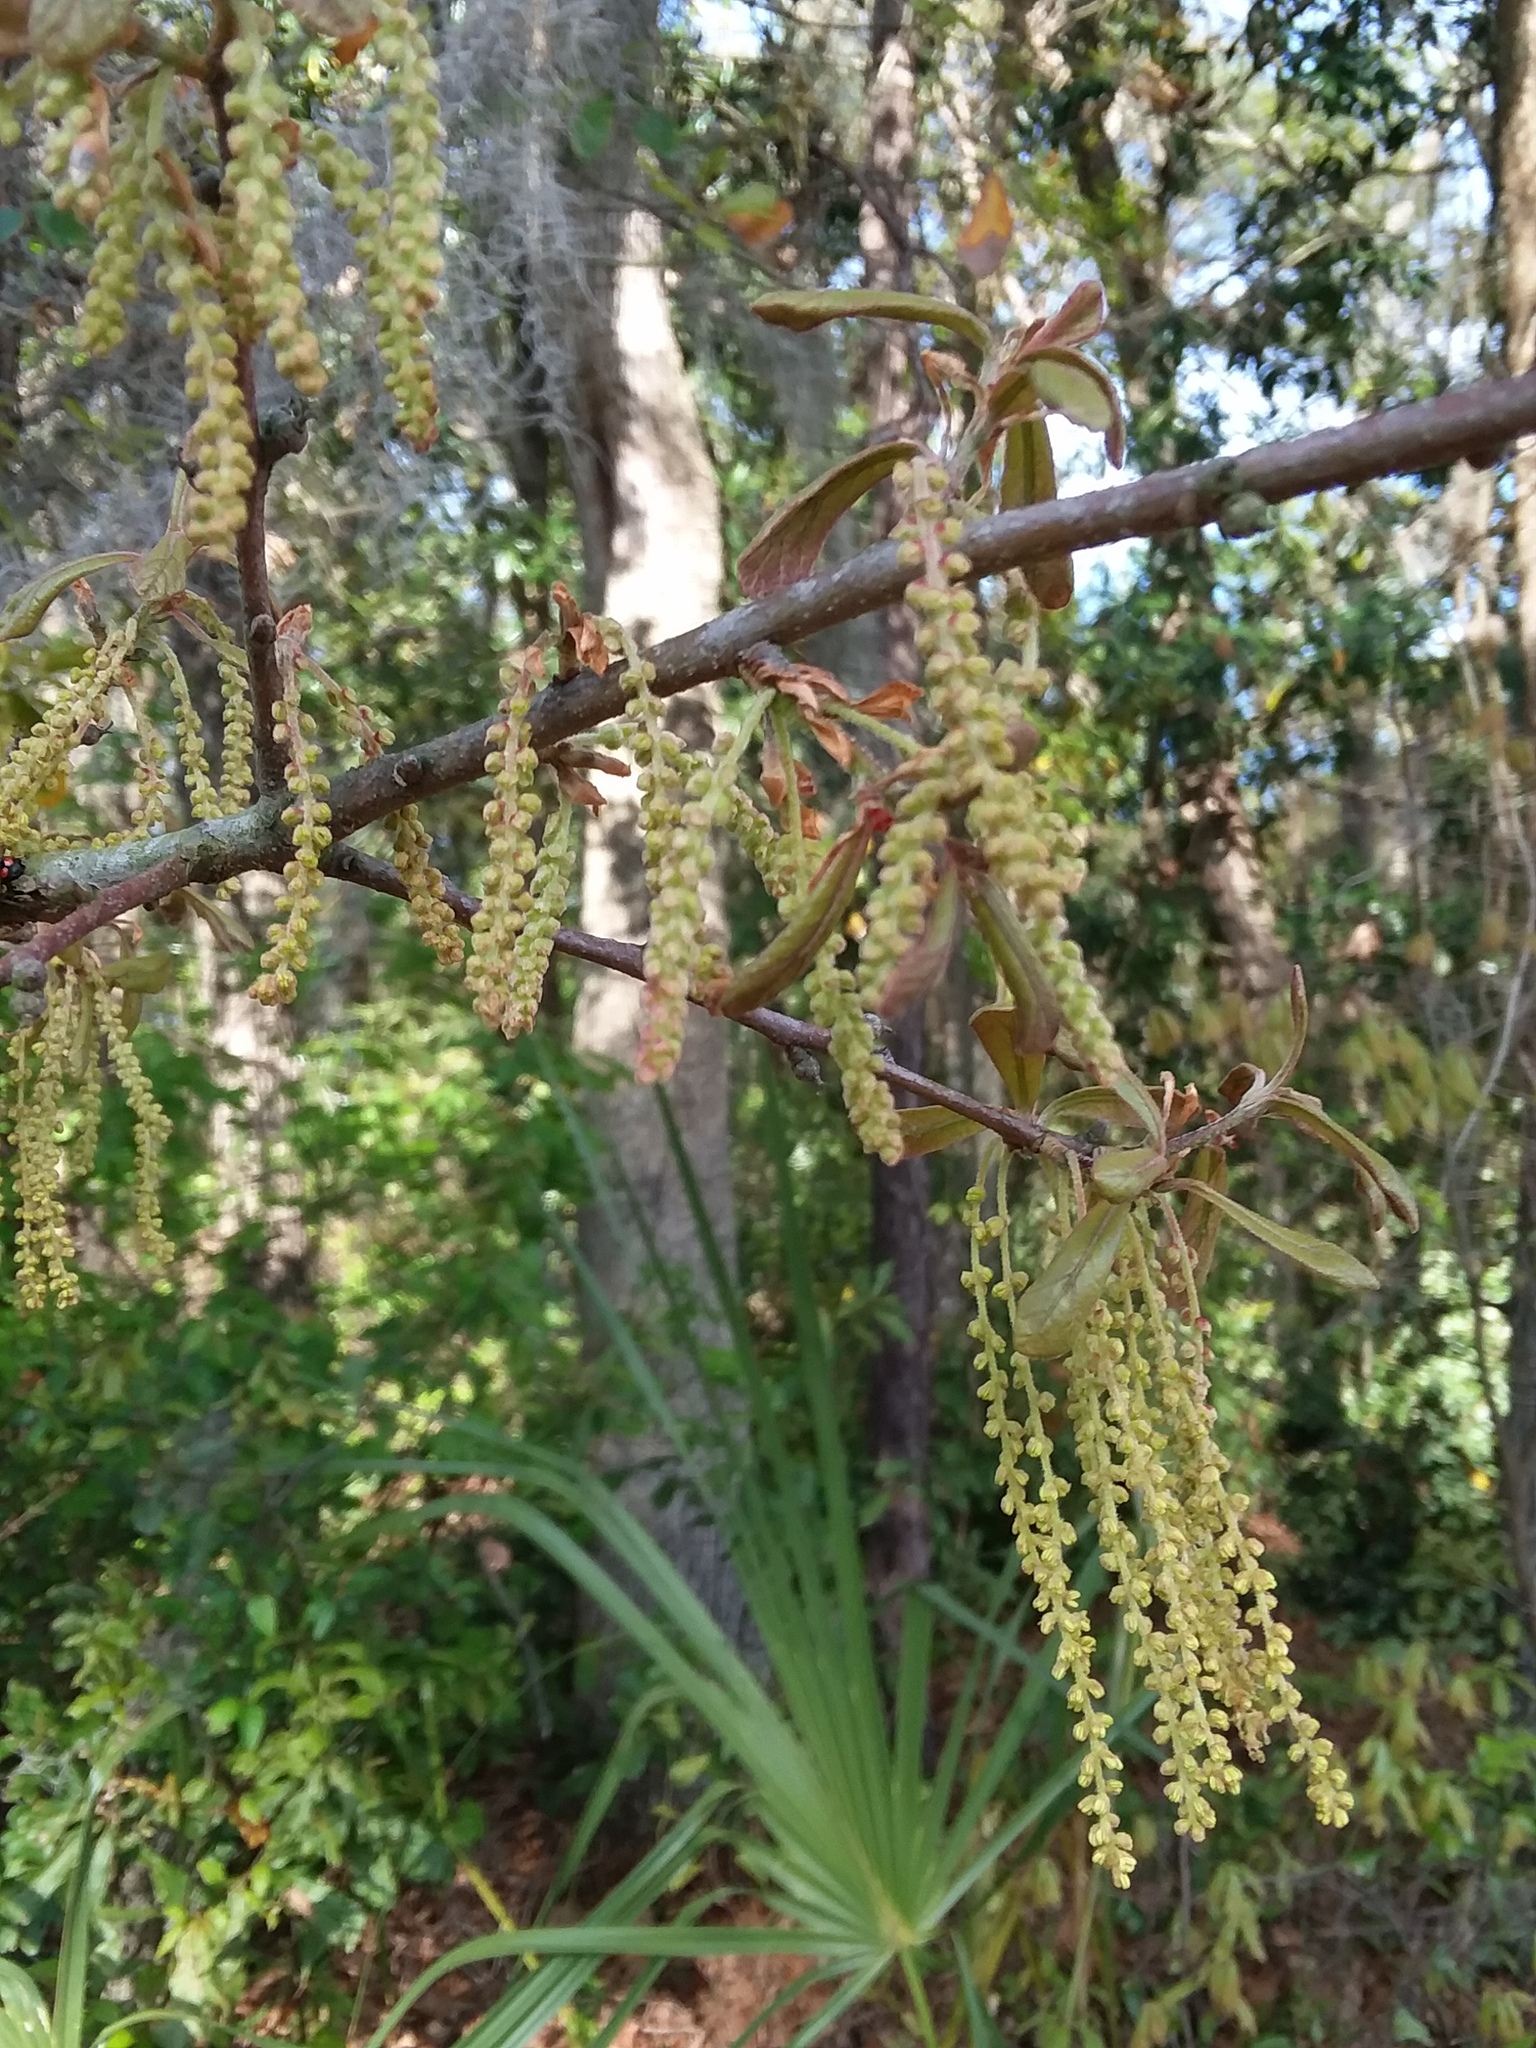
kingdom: Plantae
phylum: Tracheophyta
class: Magnoliopsida
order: Fagales
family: Fagaceae
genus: Quercus
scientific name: Quercus nigra
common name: Water oak
